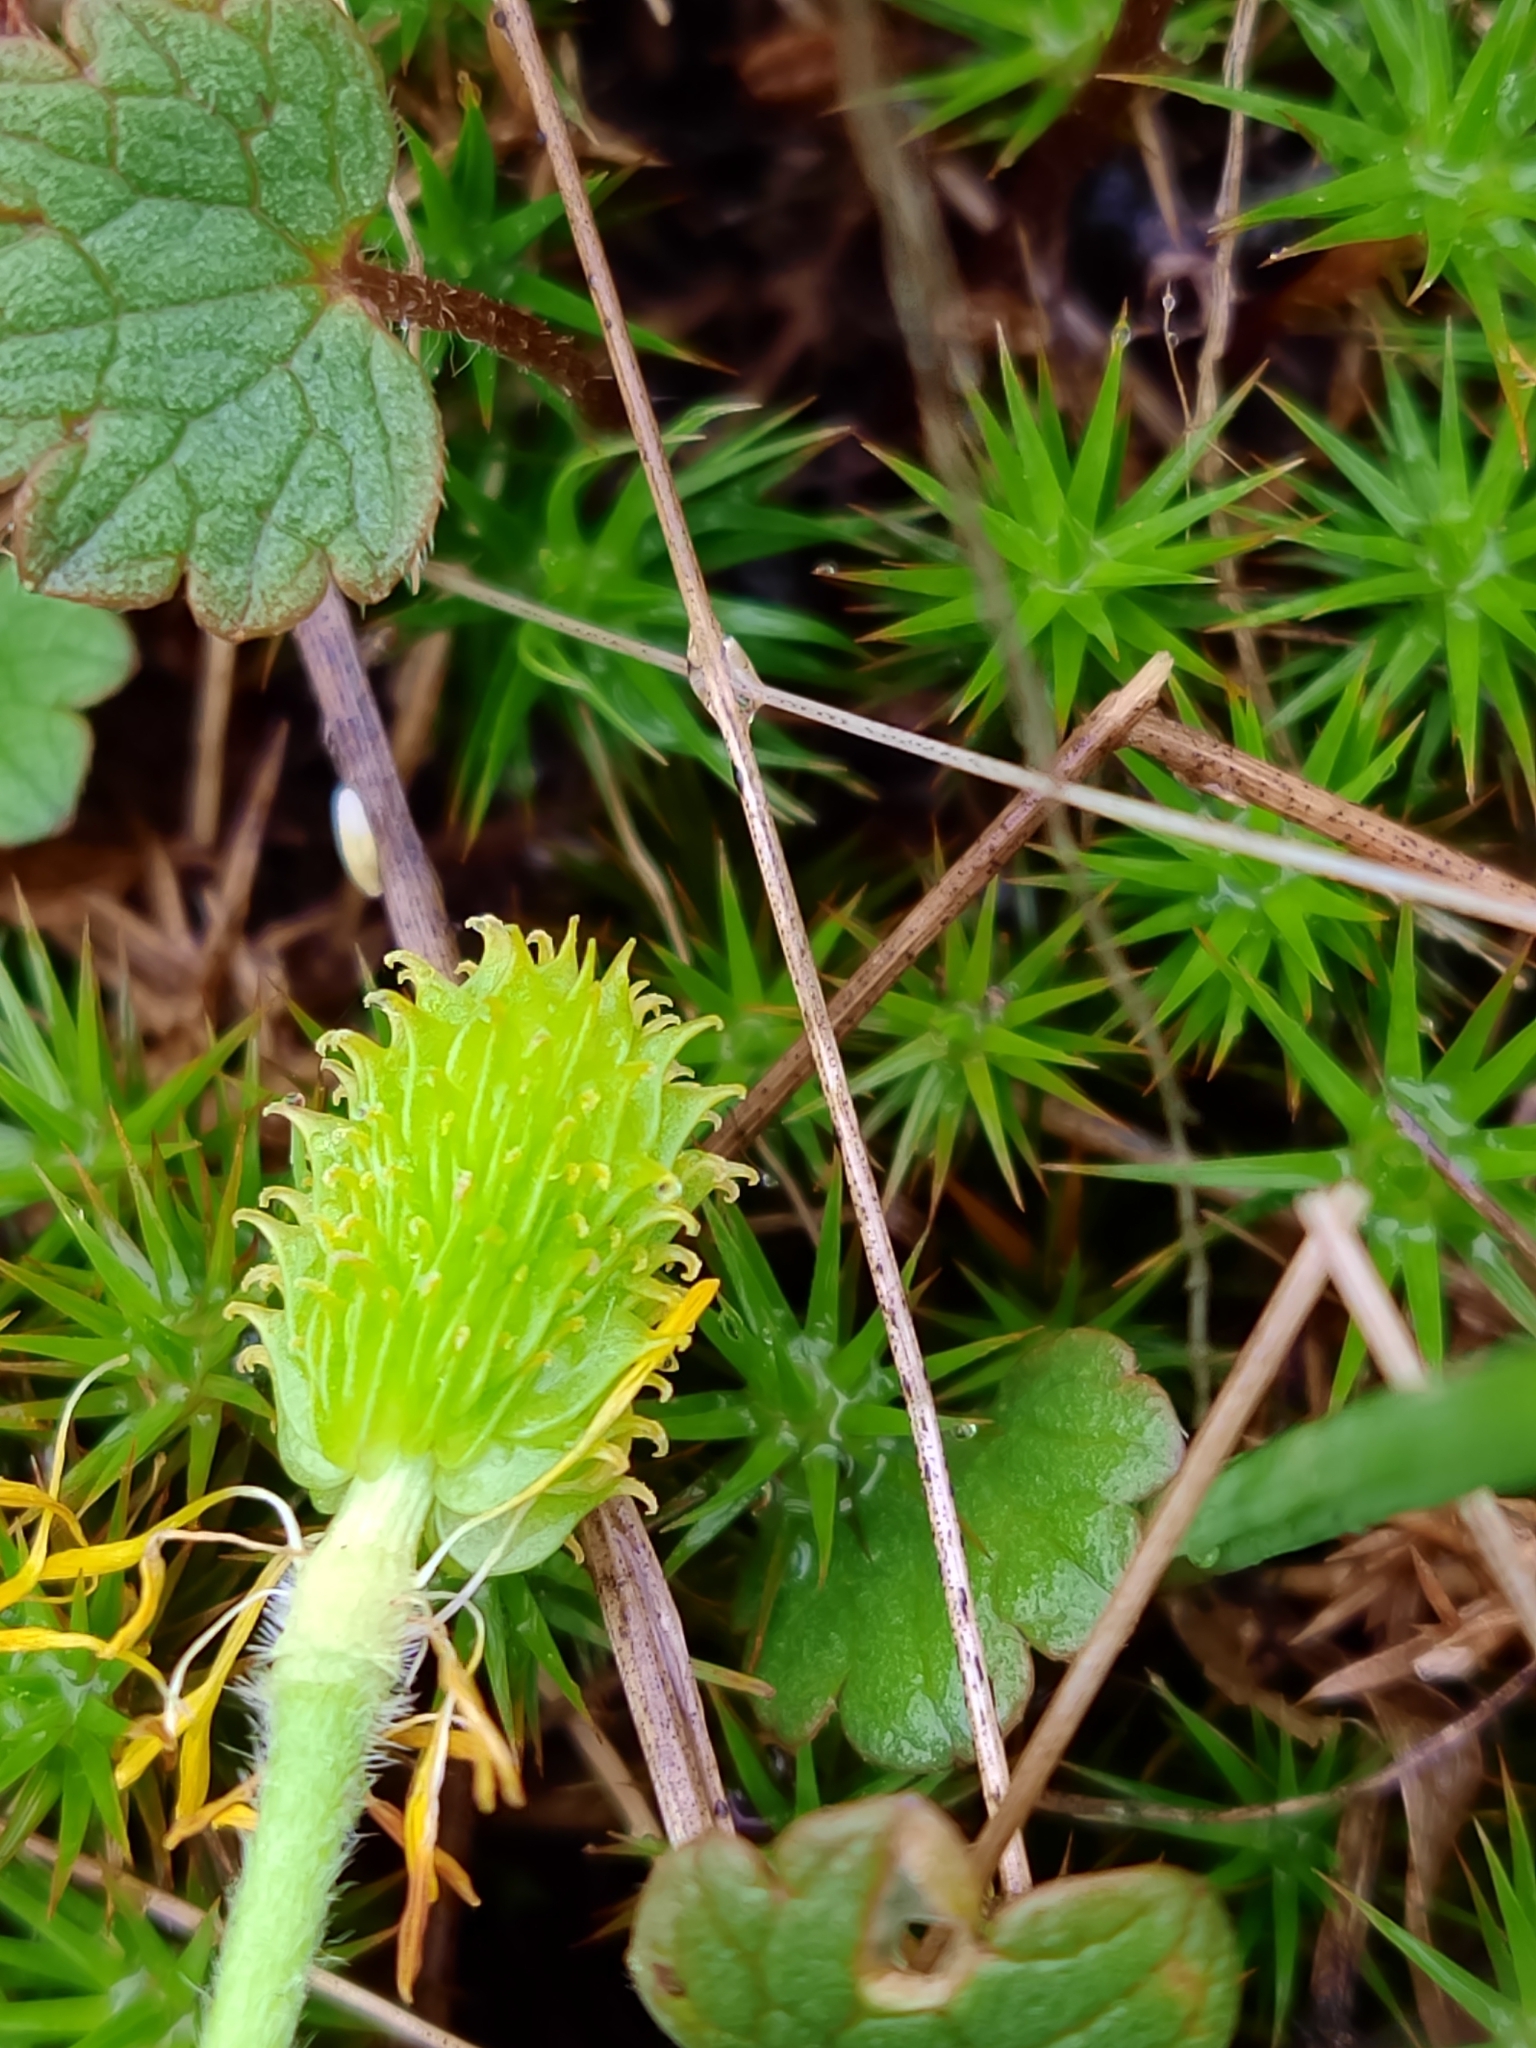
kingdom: Plantae
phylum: Tracheophyta
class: Magnoliopsida
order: Ranunculales
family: Ranunculaceae
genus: Ranunculus
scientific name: Ranunculus nigrescens
